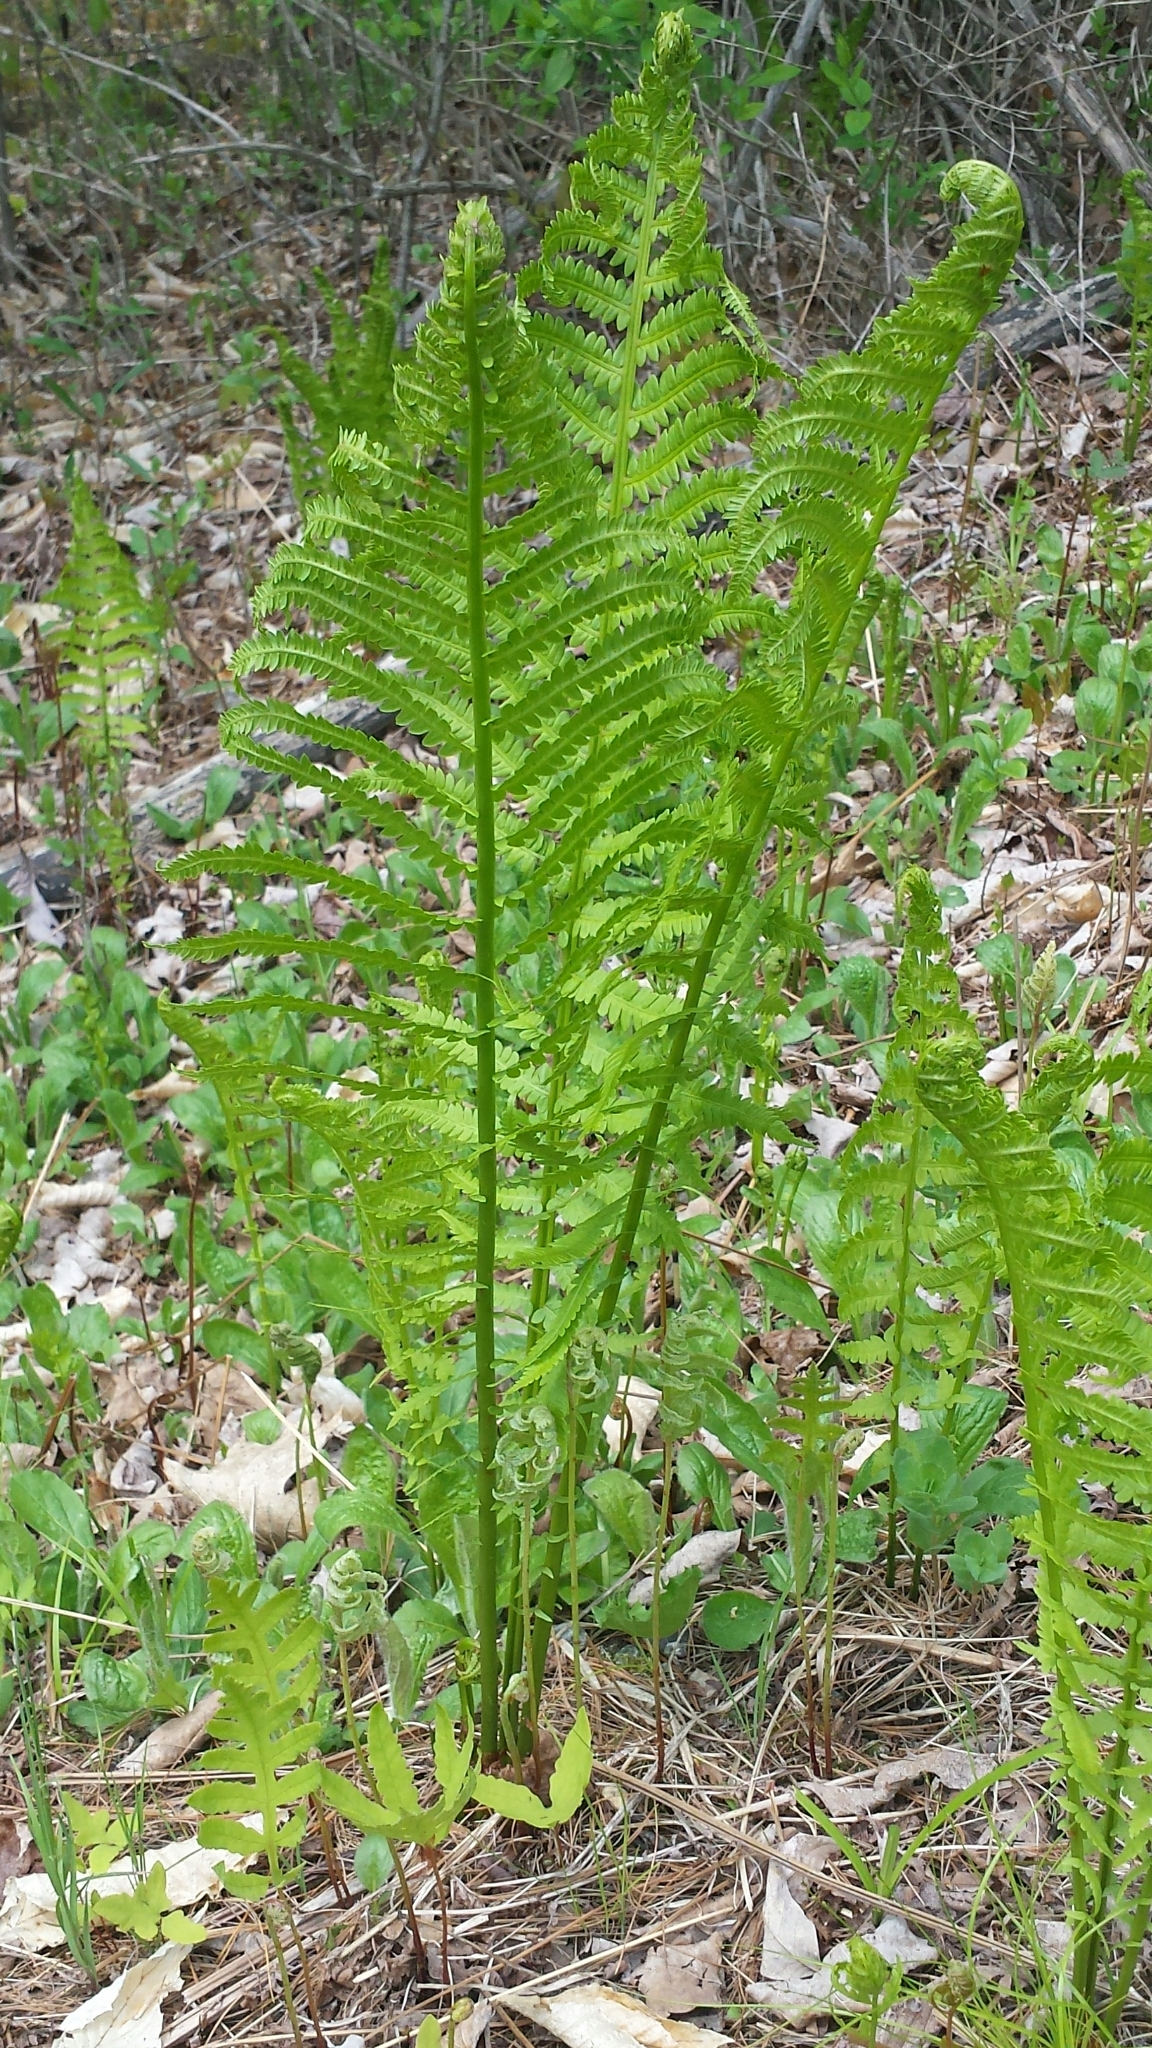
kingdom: Plantae
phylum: Tracheophyta
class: Polypodiopsida
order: Polypodiales
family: Onocleaceae
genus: Matteuccia
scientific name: Matteuccia struthiopteris
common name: Ostrich fern
